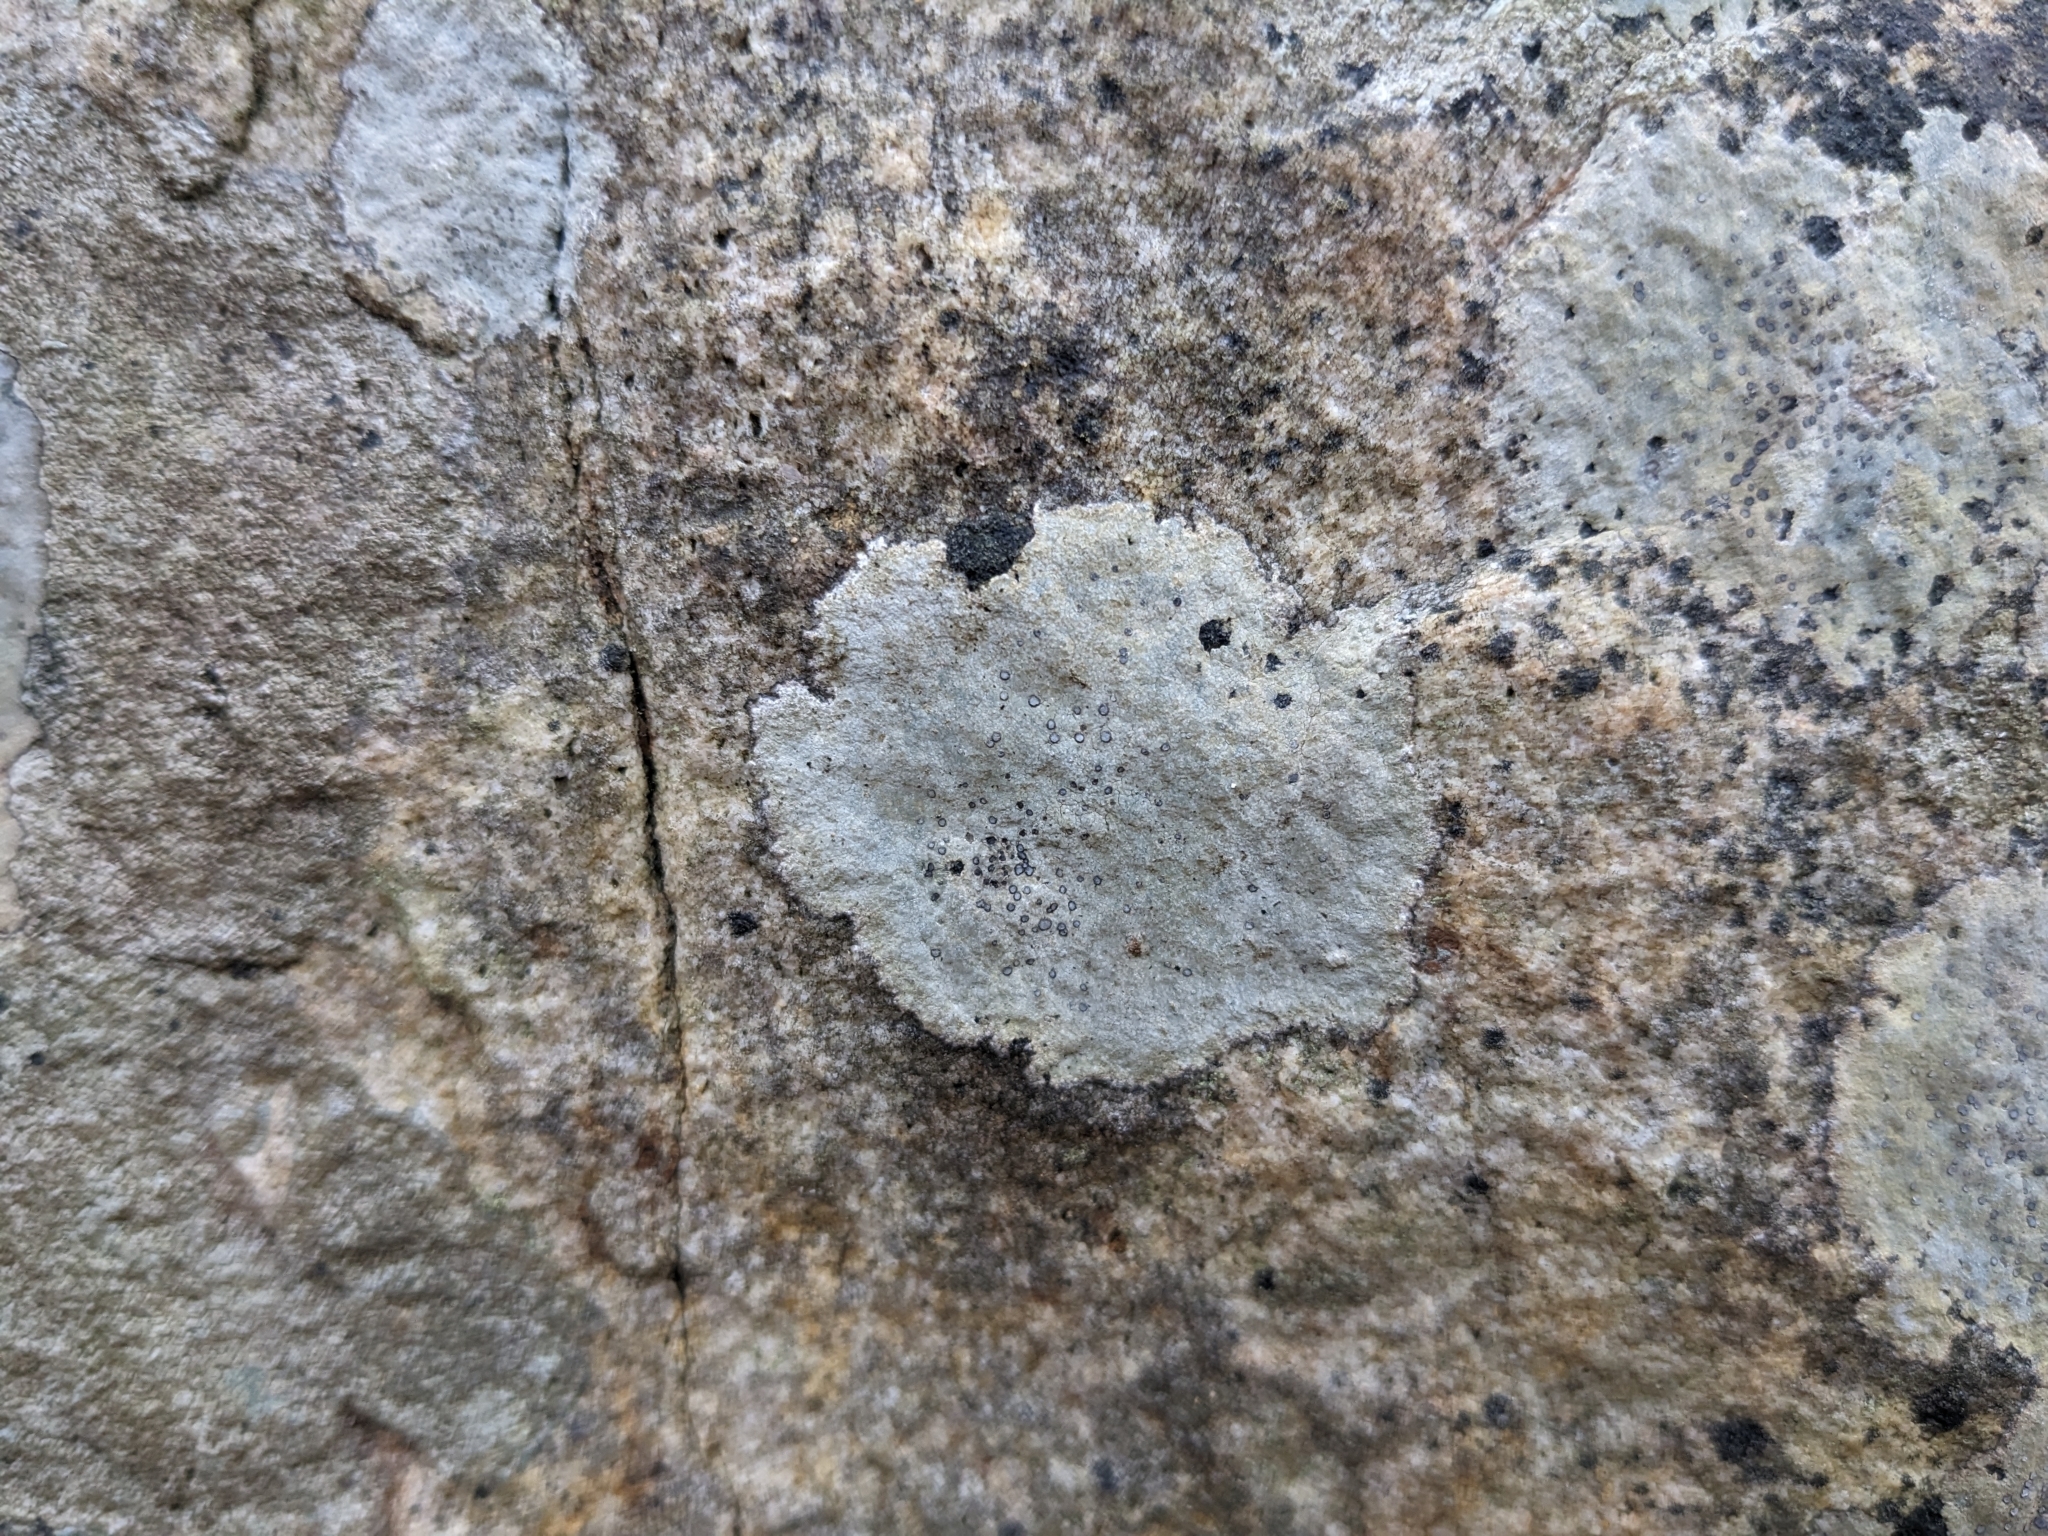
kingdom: Fungi
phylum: Ascomycota
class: Lecanoromycetes
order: Lecideales
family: Lecideaceae
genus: Porpidia
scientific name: Porpidia albocaerulescens
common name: Smokey-eyed boulder lichen
